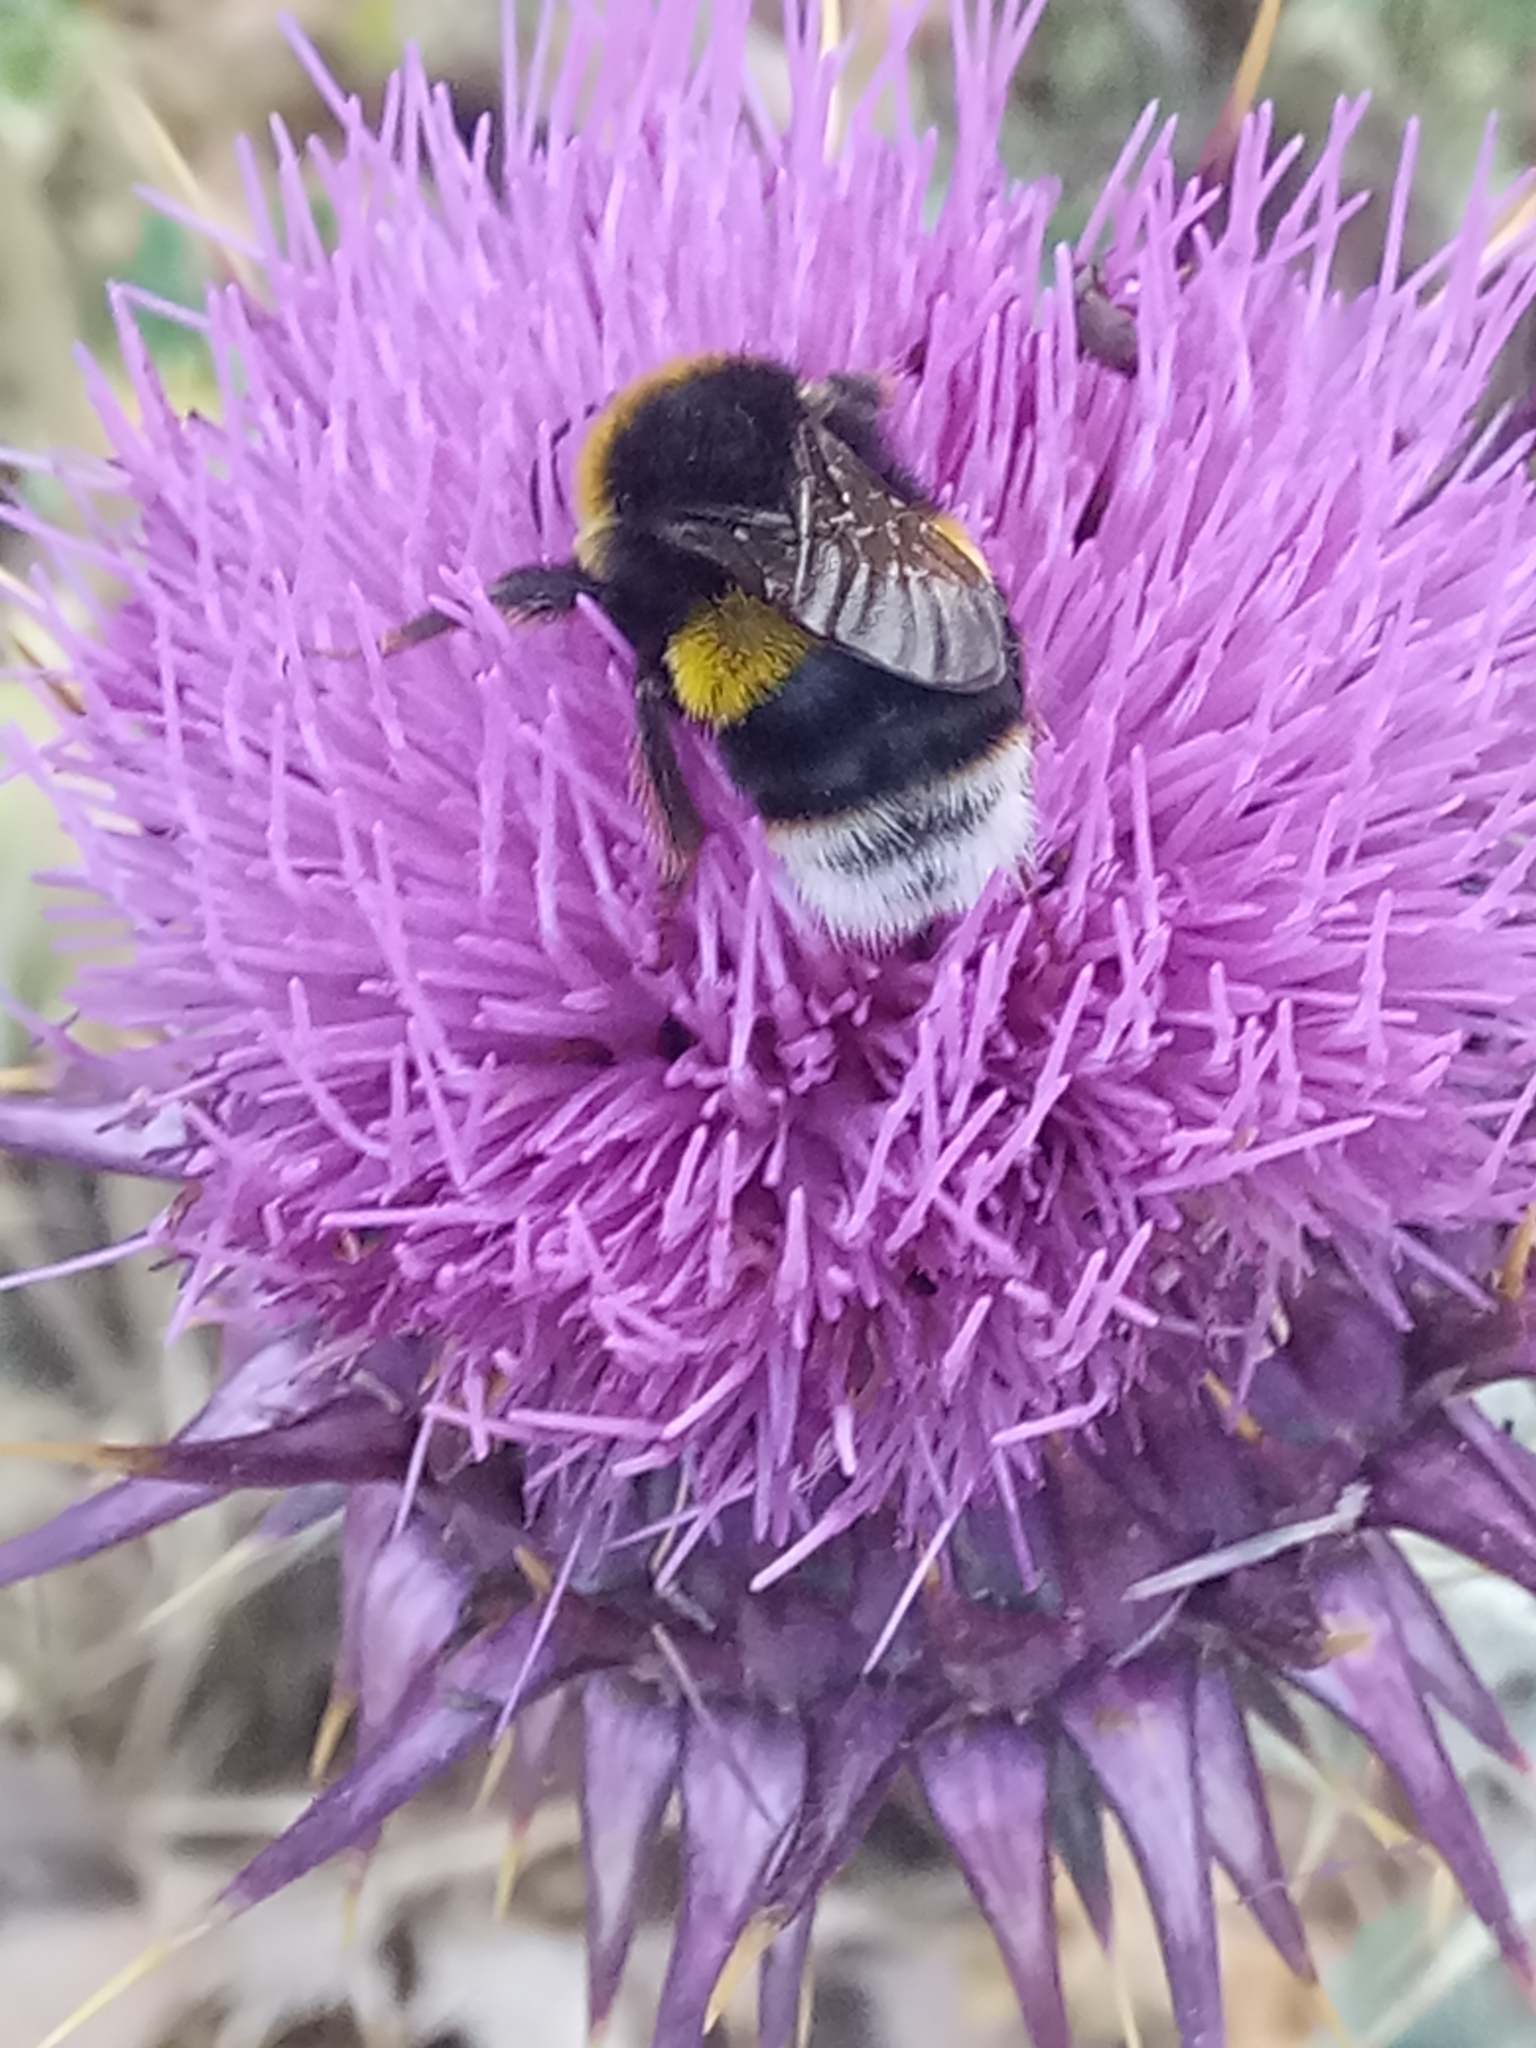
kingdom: Animalia
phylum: Arthropoda
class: Insecta
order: Hymenoptera
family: Apidae
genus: Bombus
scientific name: Bombus terrestris
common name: Buff-tailed bumblebee
